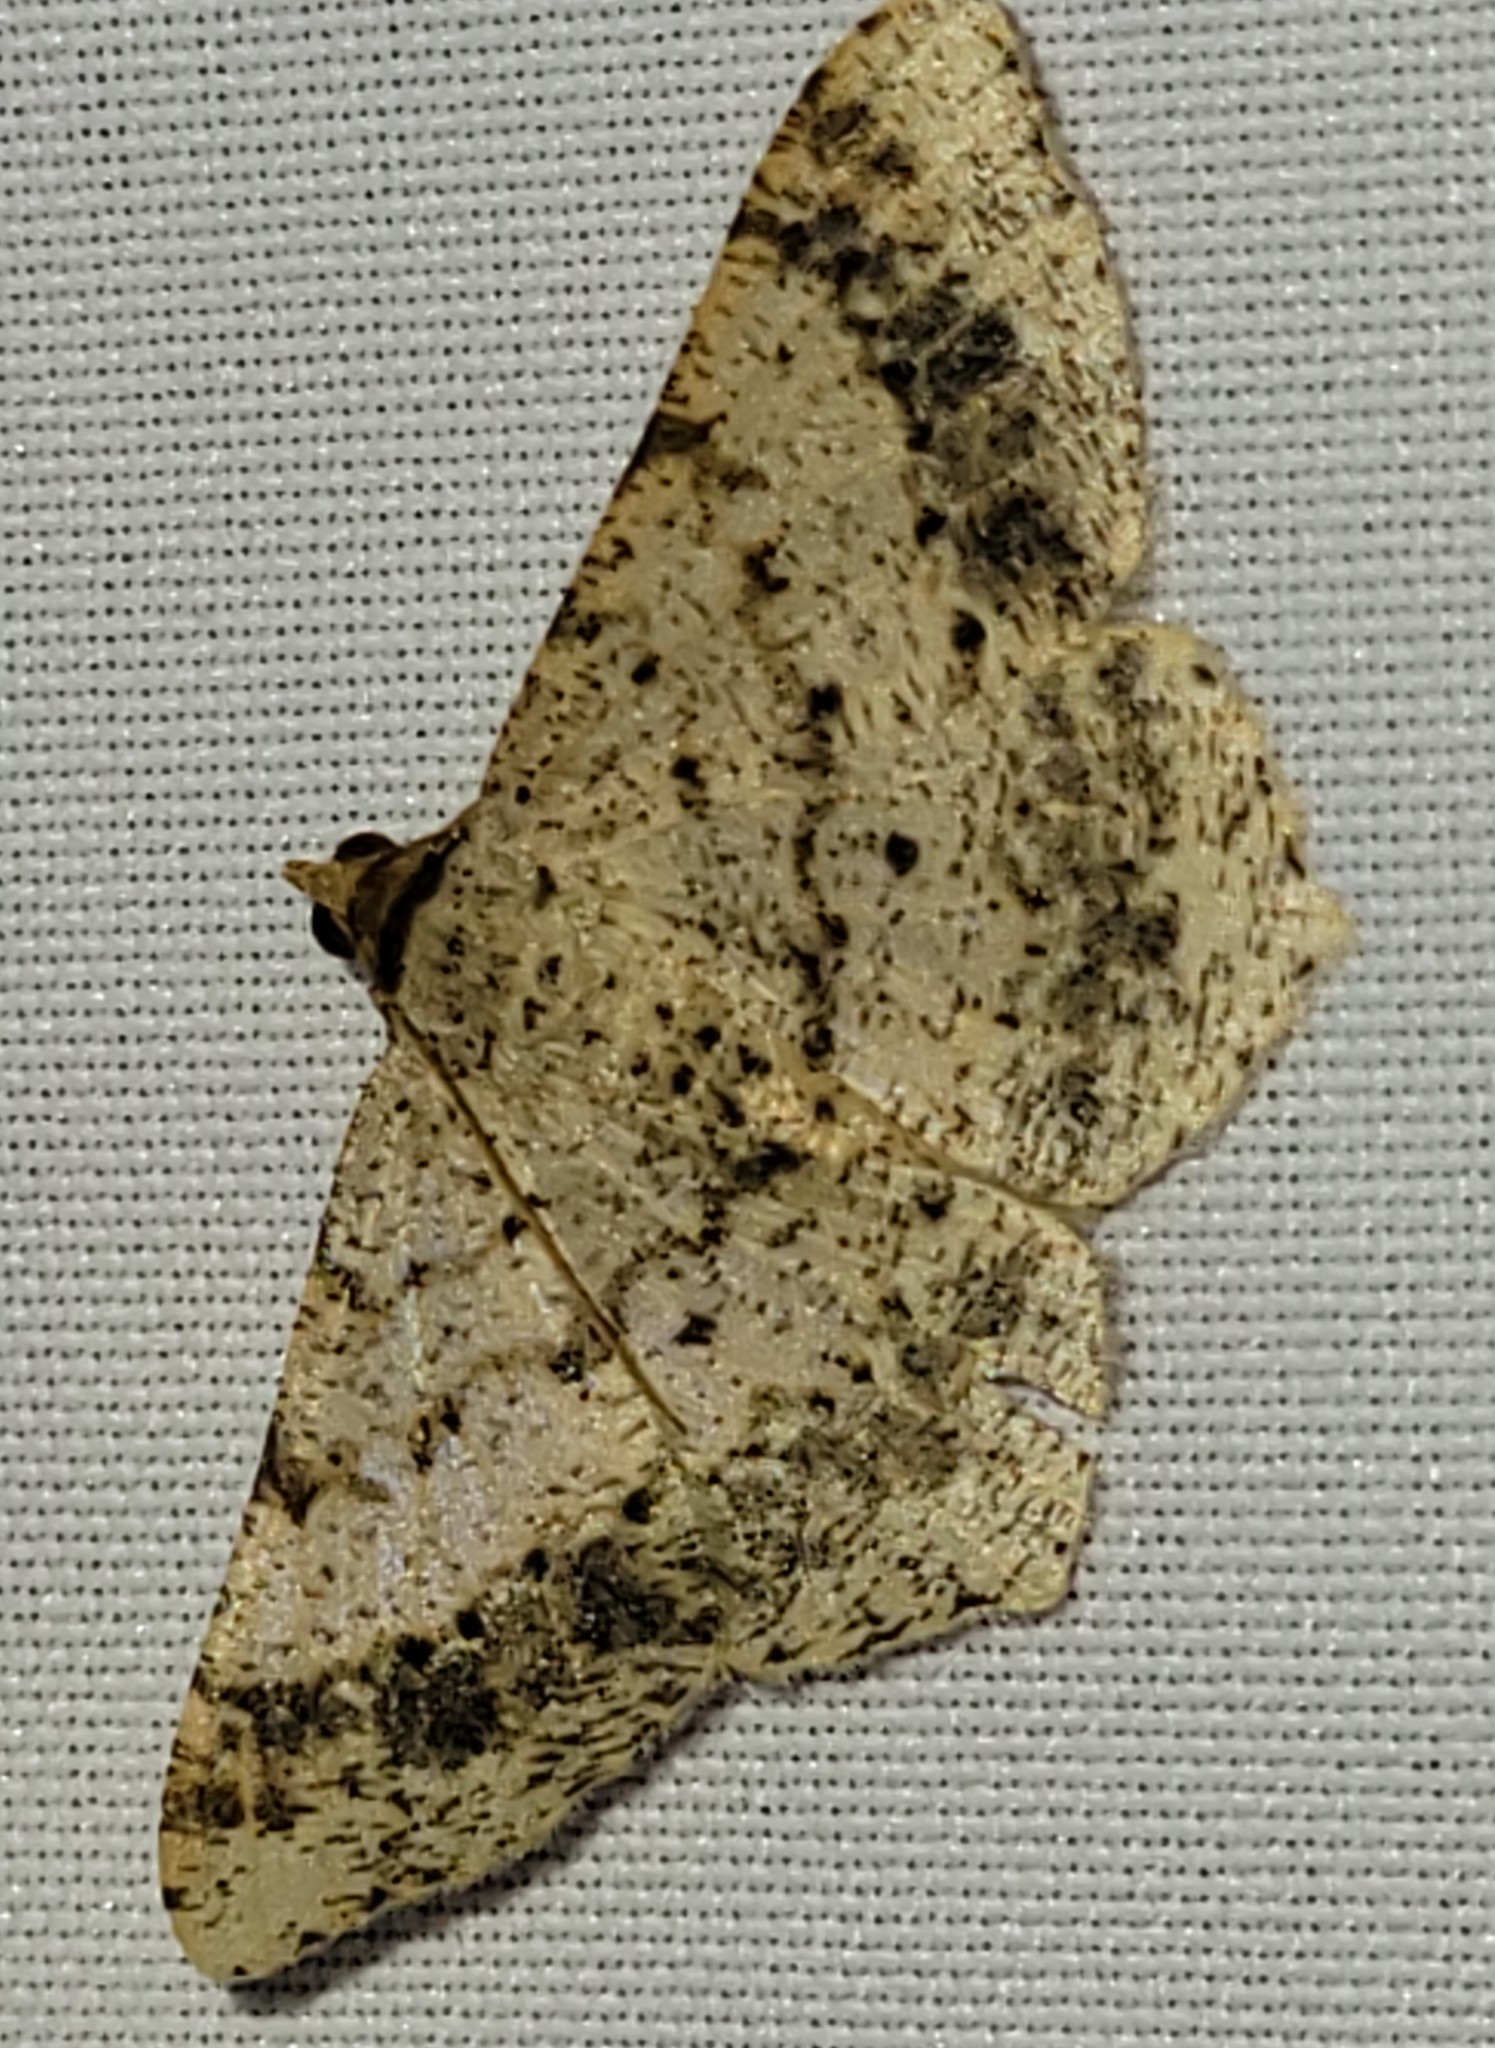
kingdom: Animalia
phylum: Arthropoda
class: Insecta
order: Lepidoptera
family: Geometridae
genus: Macaria
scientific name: Macaria abydata
